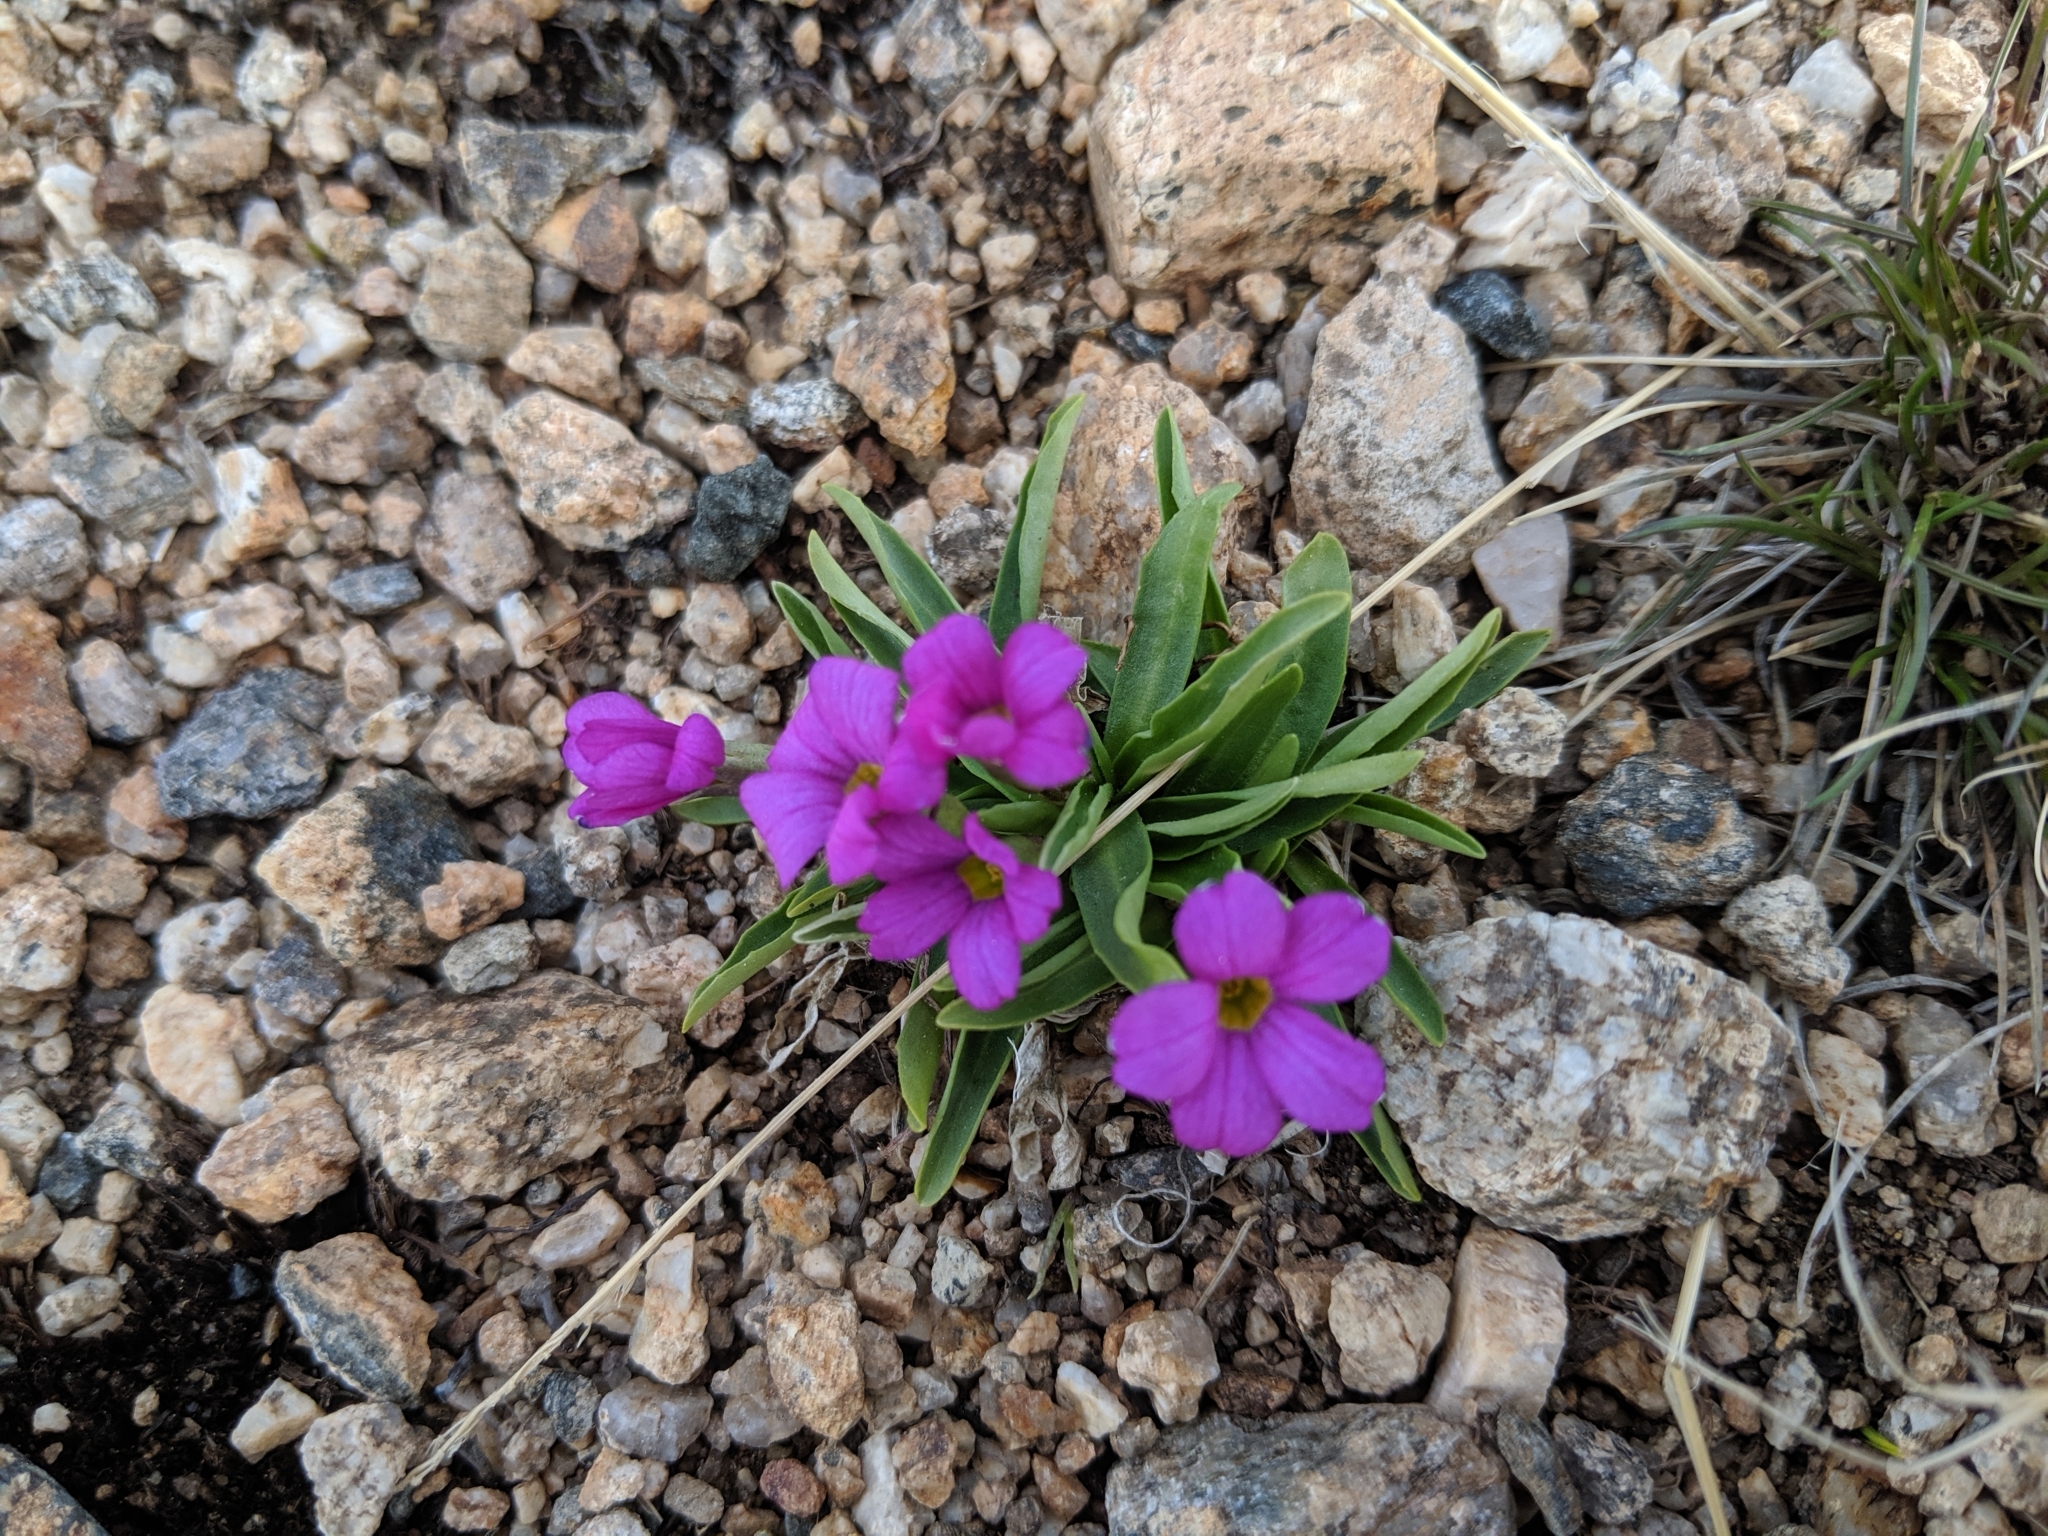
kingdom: Plantae
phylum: Tracheophyta
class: Magnoliopsida
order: Ericales
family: Primulaceae
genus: Primula
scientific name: Primula angustifolia
